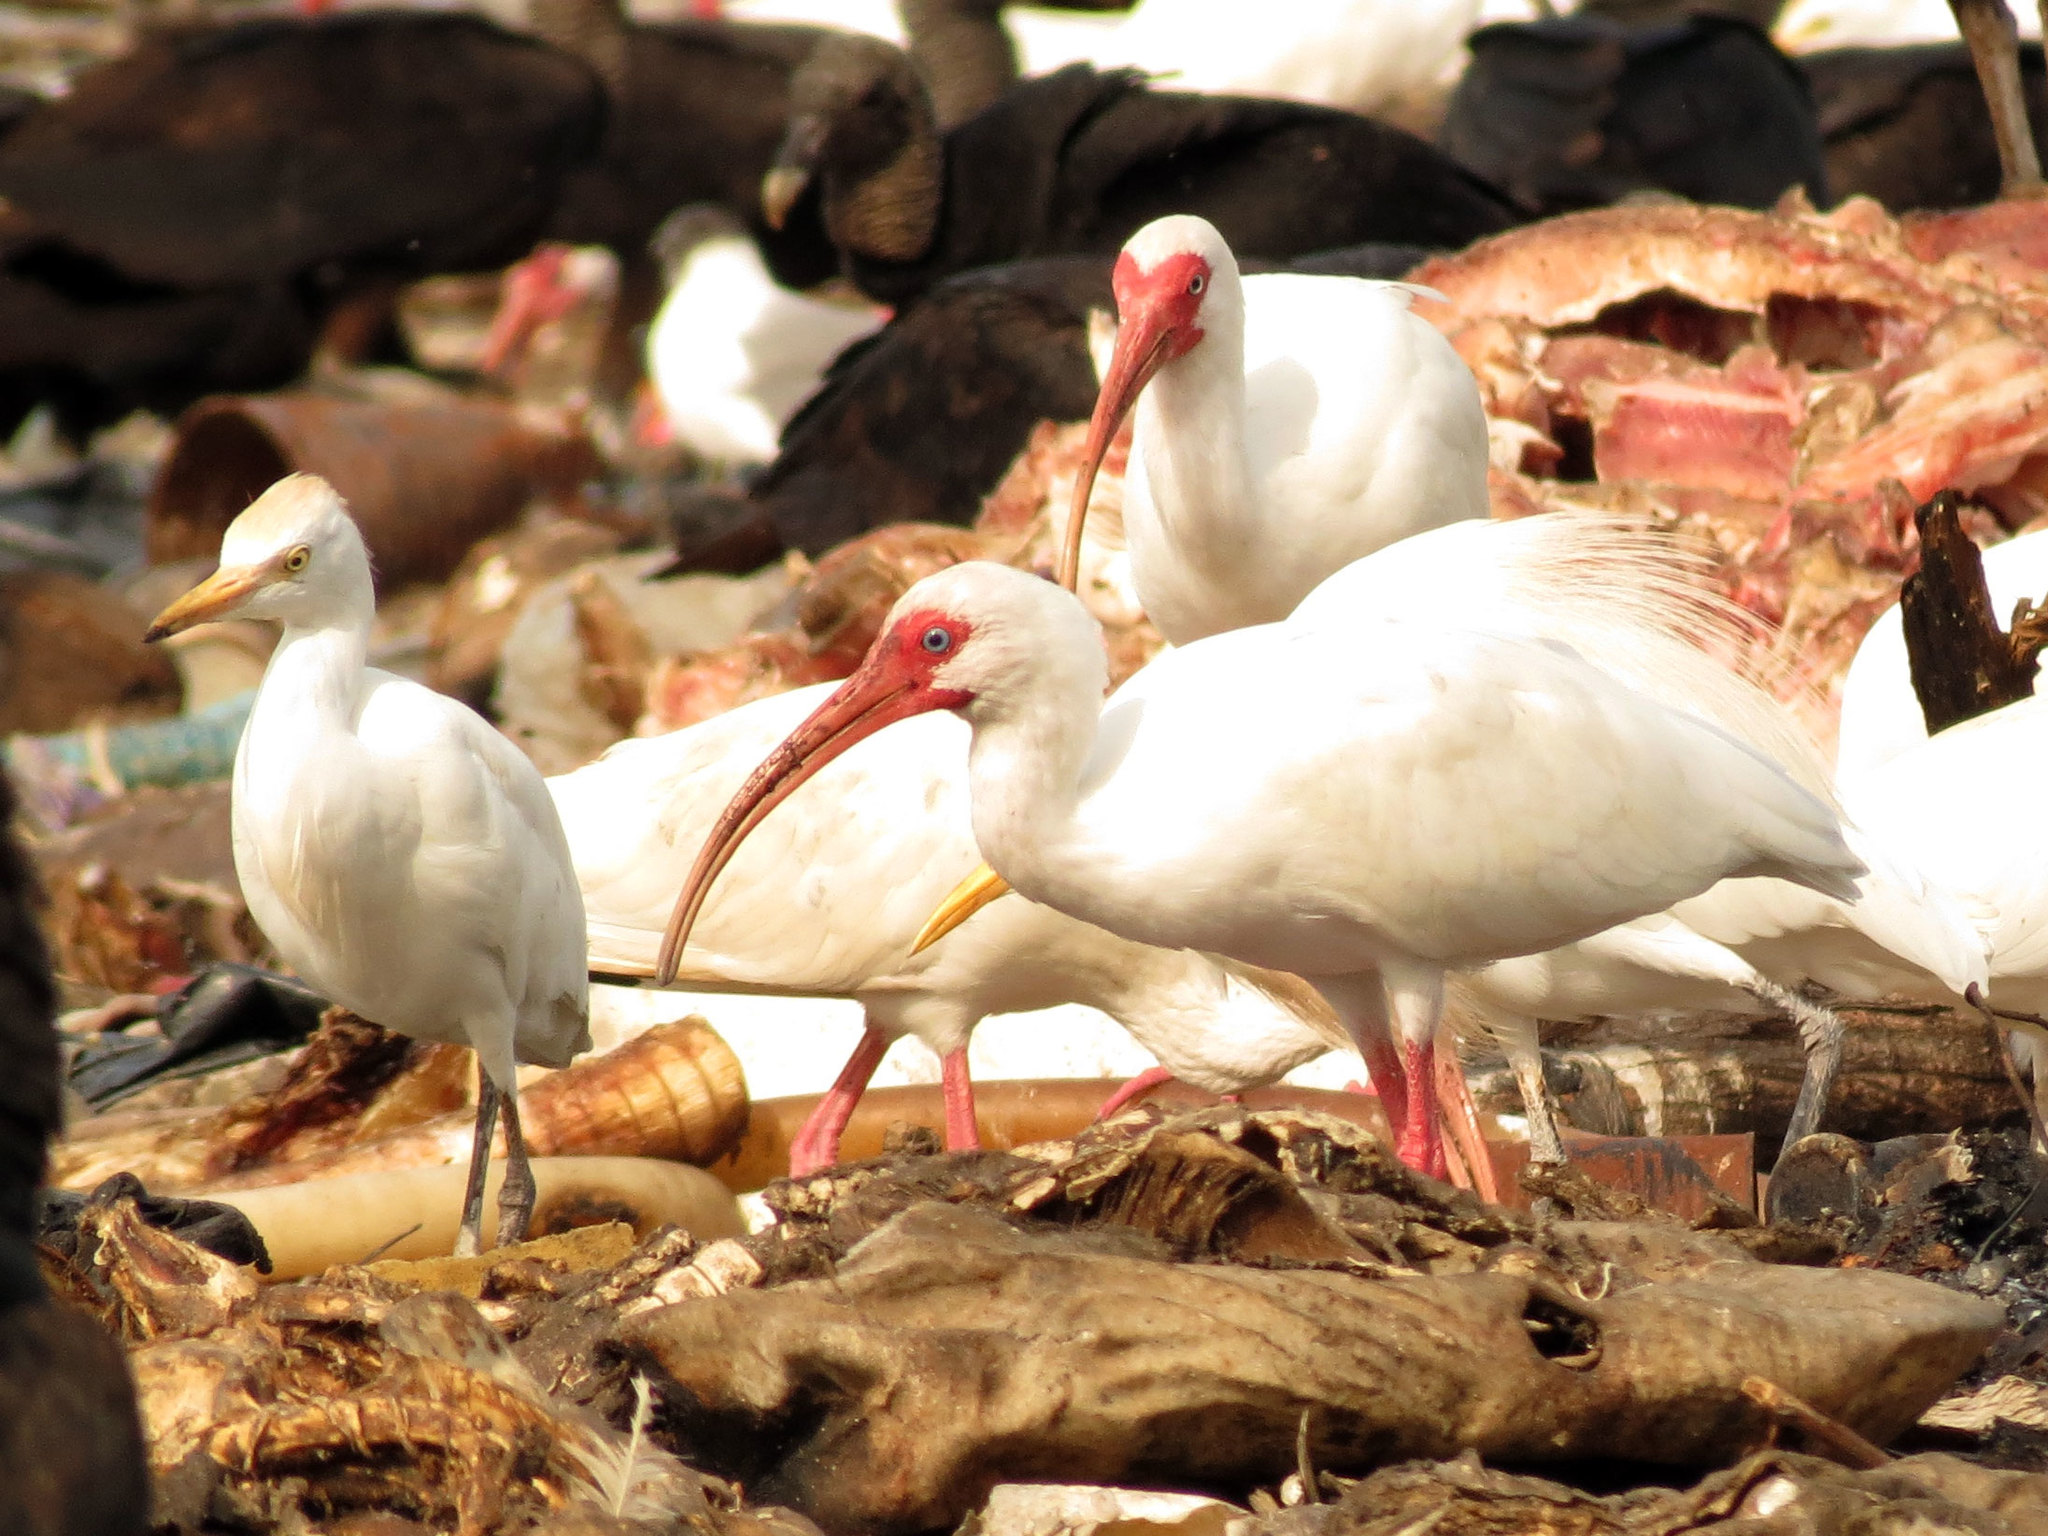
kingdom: Animalia
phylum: Chordata
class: Aves
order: Pelecaniformes
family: Threskiornithidae
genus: Eudocimus
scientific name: Eudocimus albus
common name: White ibis
